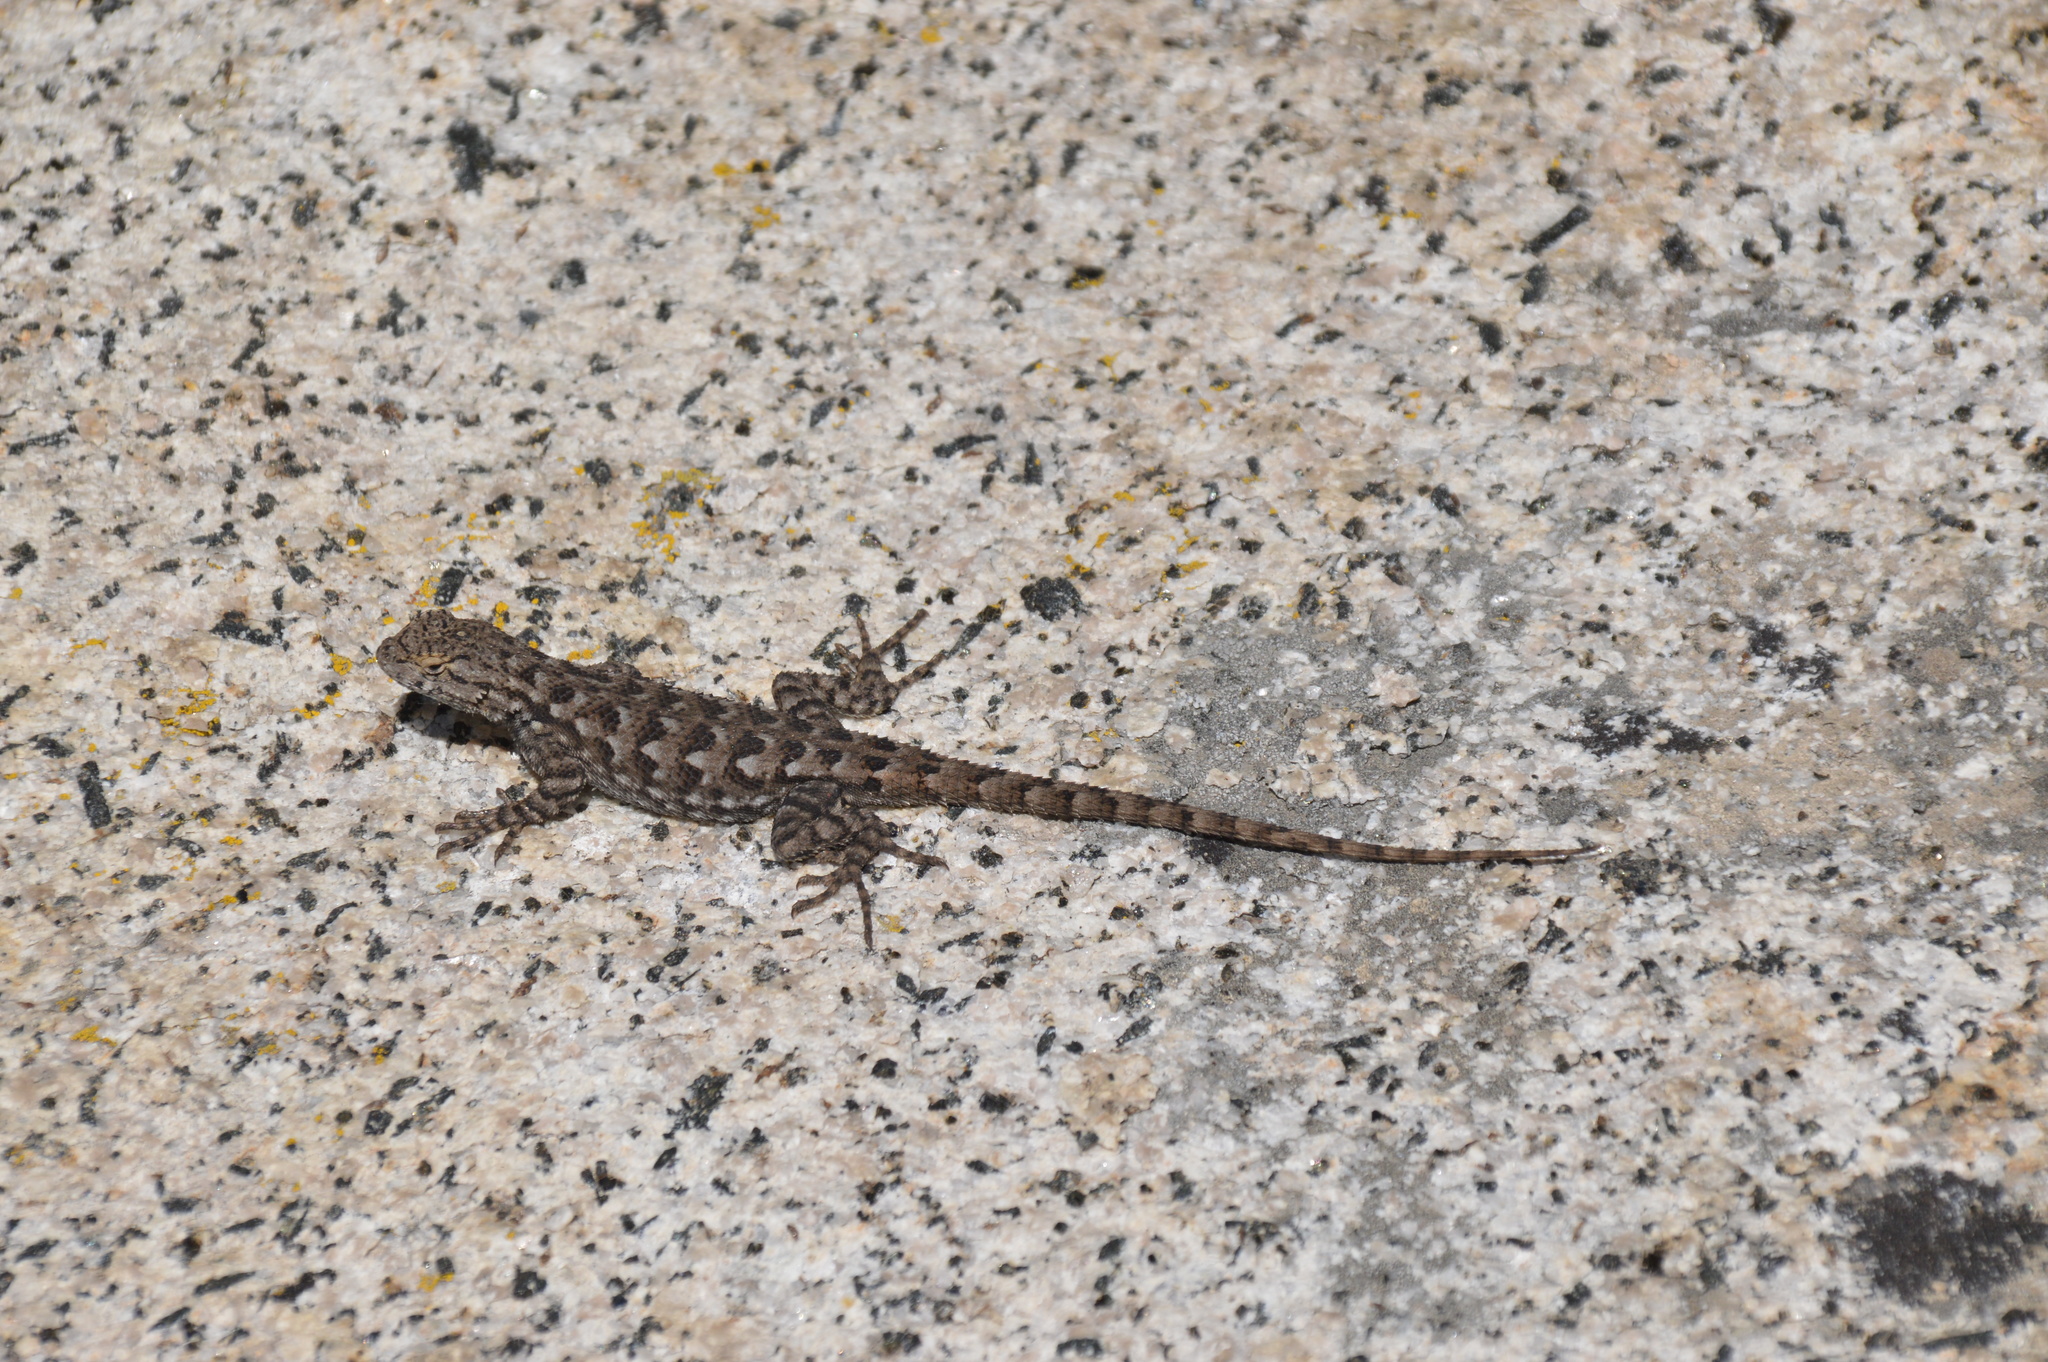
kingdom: Animalia
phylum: Chordata
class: Squamata
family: Phrynosomatidae
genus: Sceloporus
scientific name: Sceloporus occidentalis
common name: Western fence lizard
